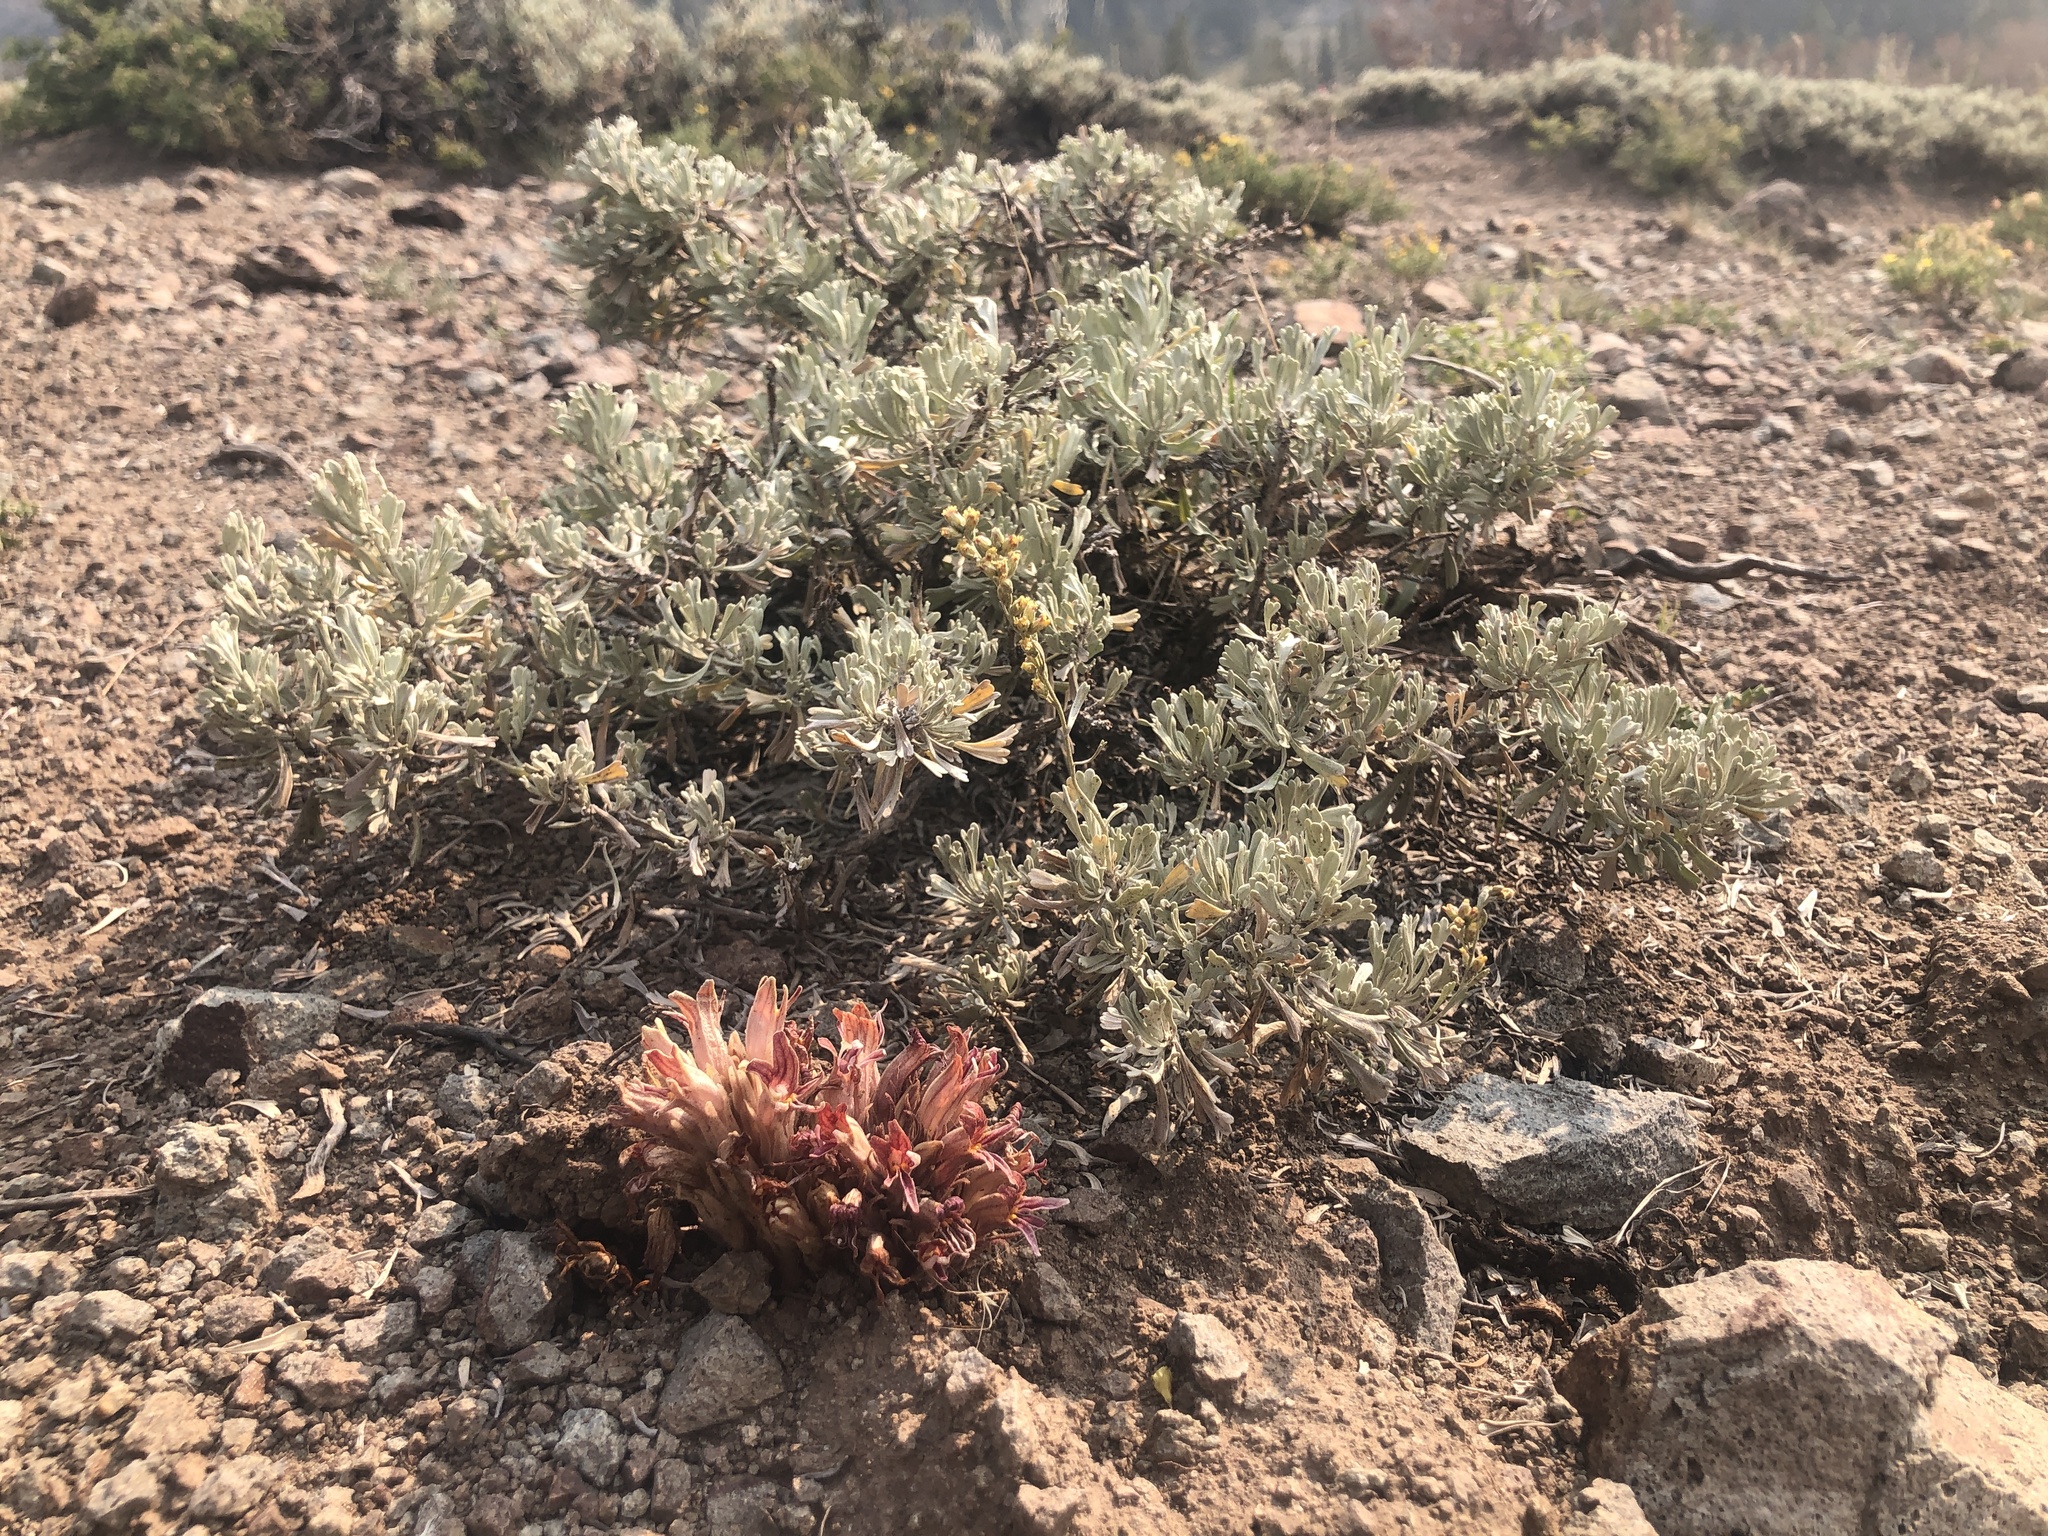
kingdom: Plantae
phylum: Tracheophyta
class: Magnoliopsida
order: Lamiales
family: Orobanchaceae
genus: Aphyllon
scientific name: Aphyllon corymbosum
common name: Flat-top broomrape
